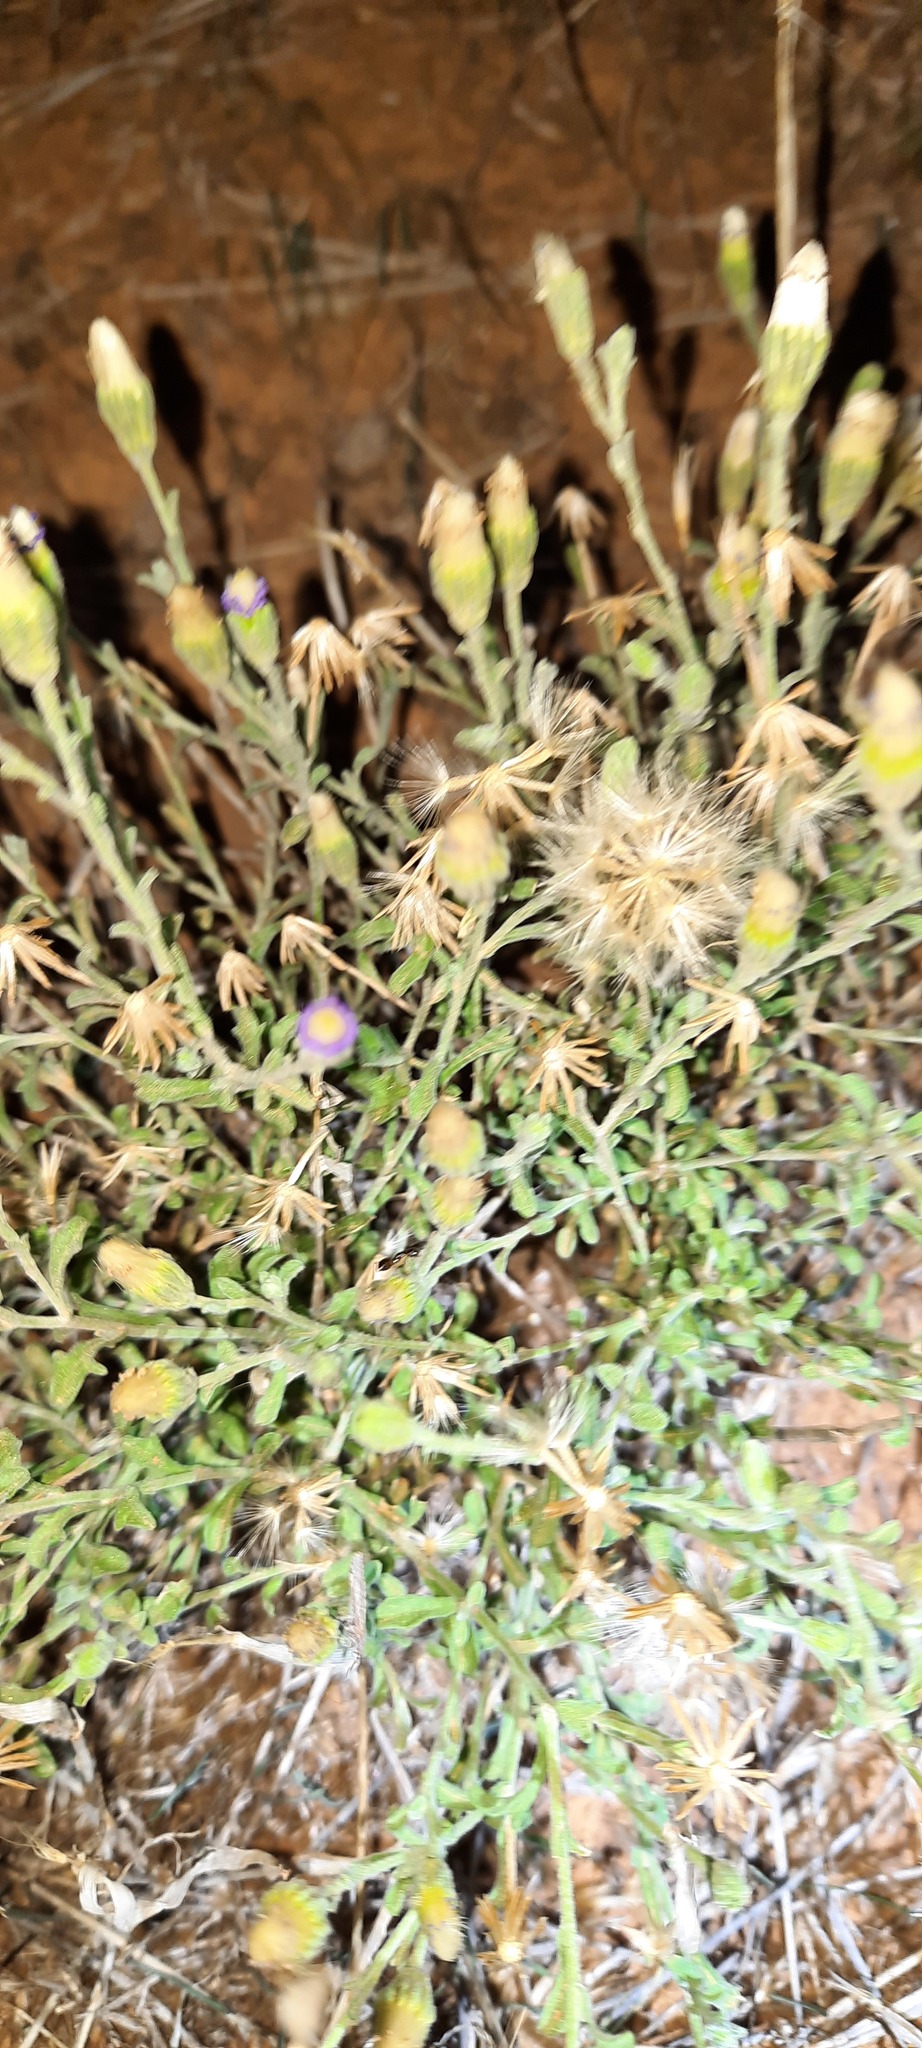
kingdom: Plantae
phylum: Tracheophyta
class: Magnoliopsida
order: Asterales
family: Asteraceae
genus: Vittadinia
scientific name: Vittadinia gracilis
